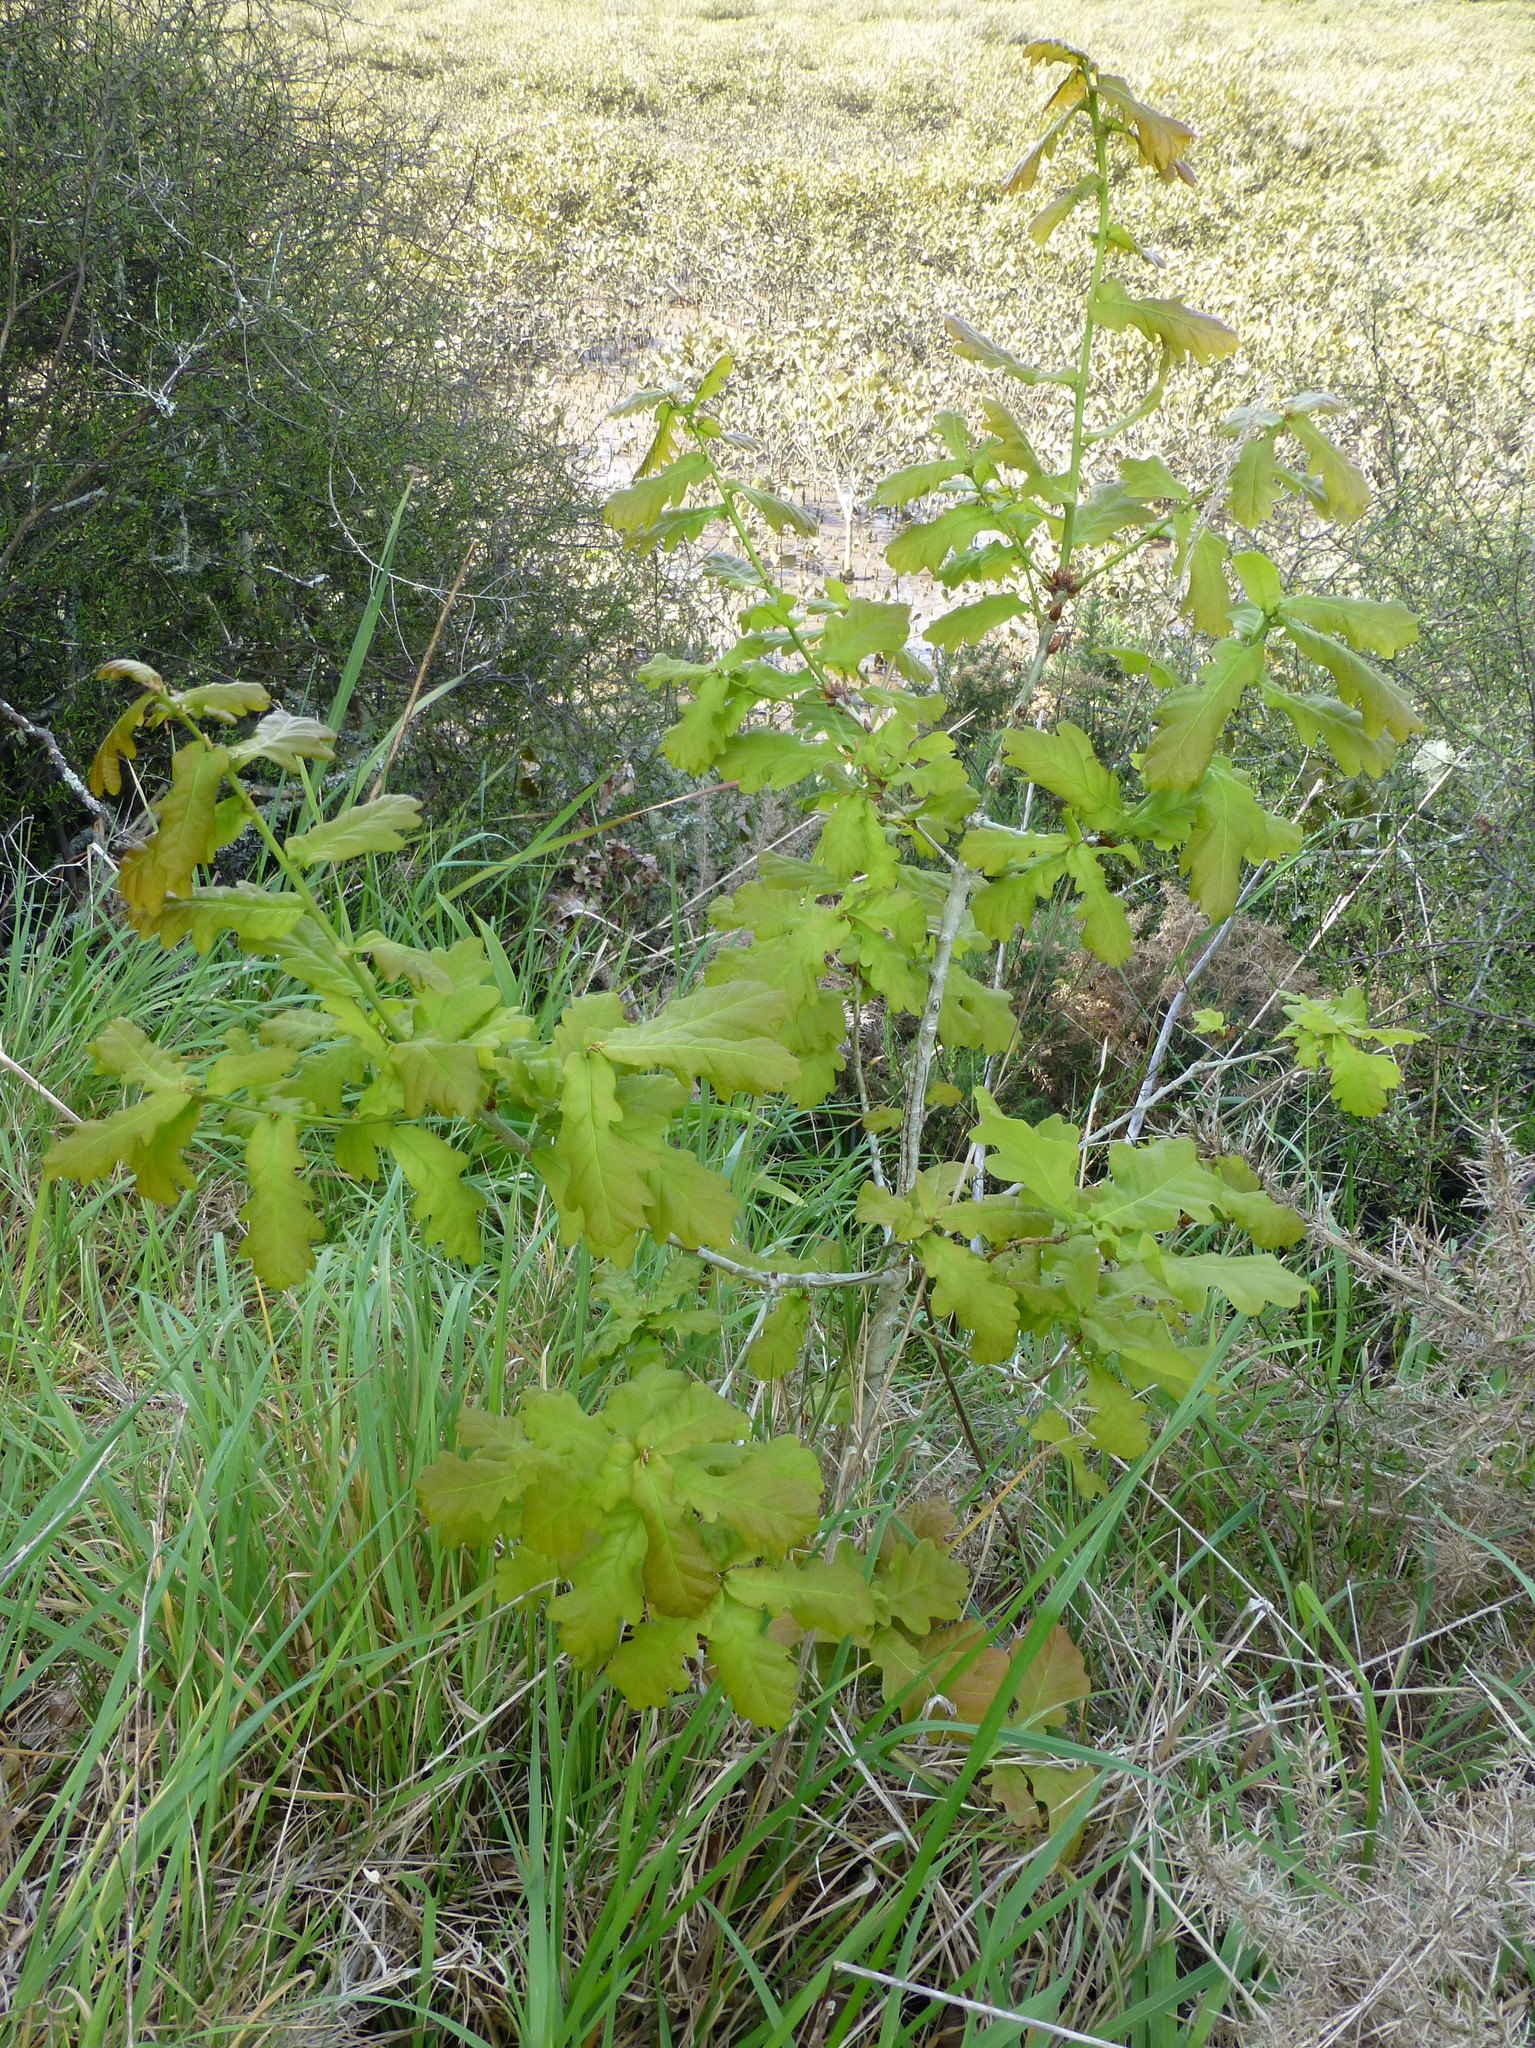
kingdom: Plantae
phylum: Tracheophyta
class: Magnoliopsida
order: Fagales
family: Fagaceae
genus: Quercus
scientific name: Quercus robur
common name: Pedunculate oak
